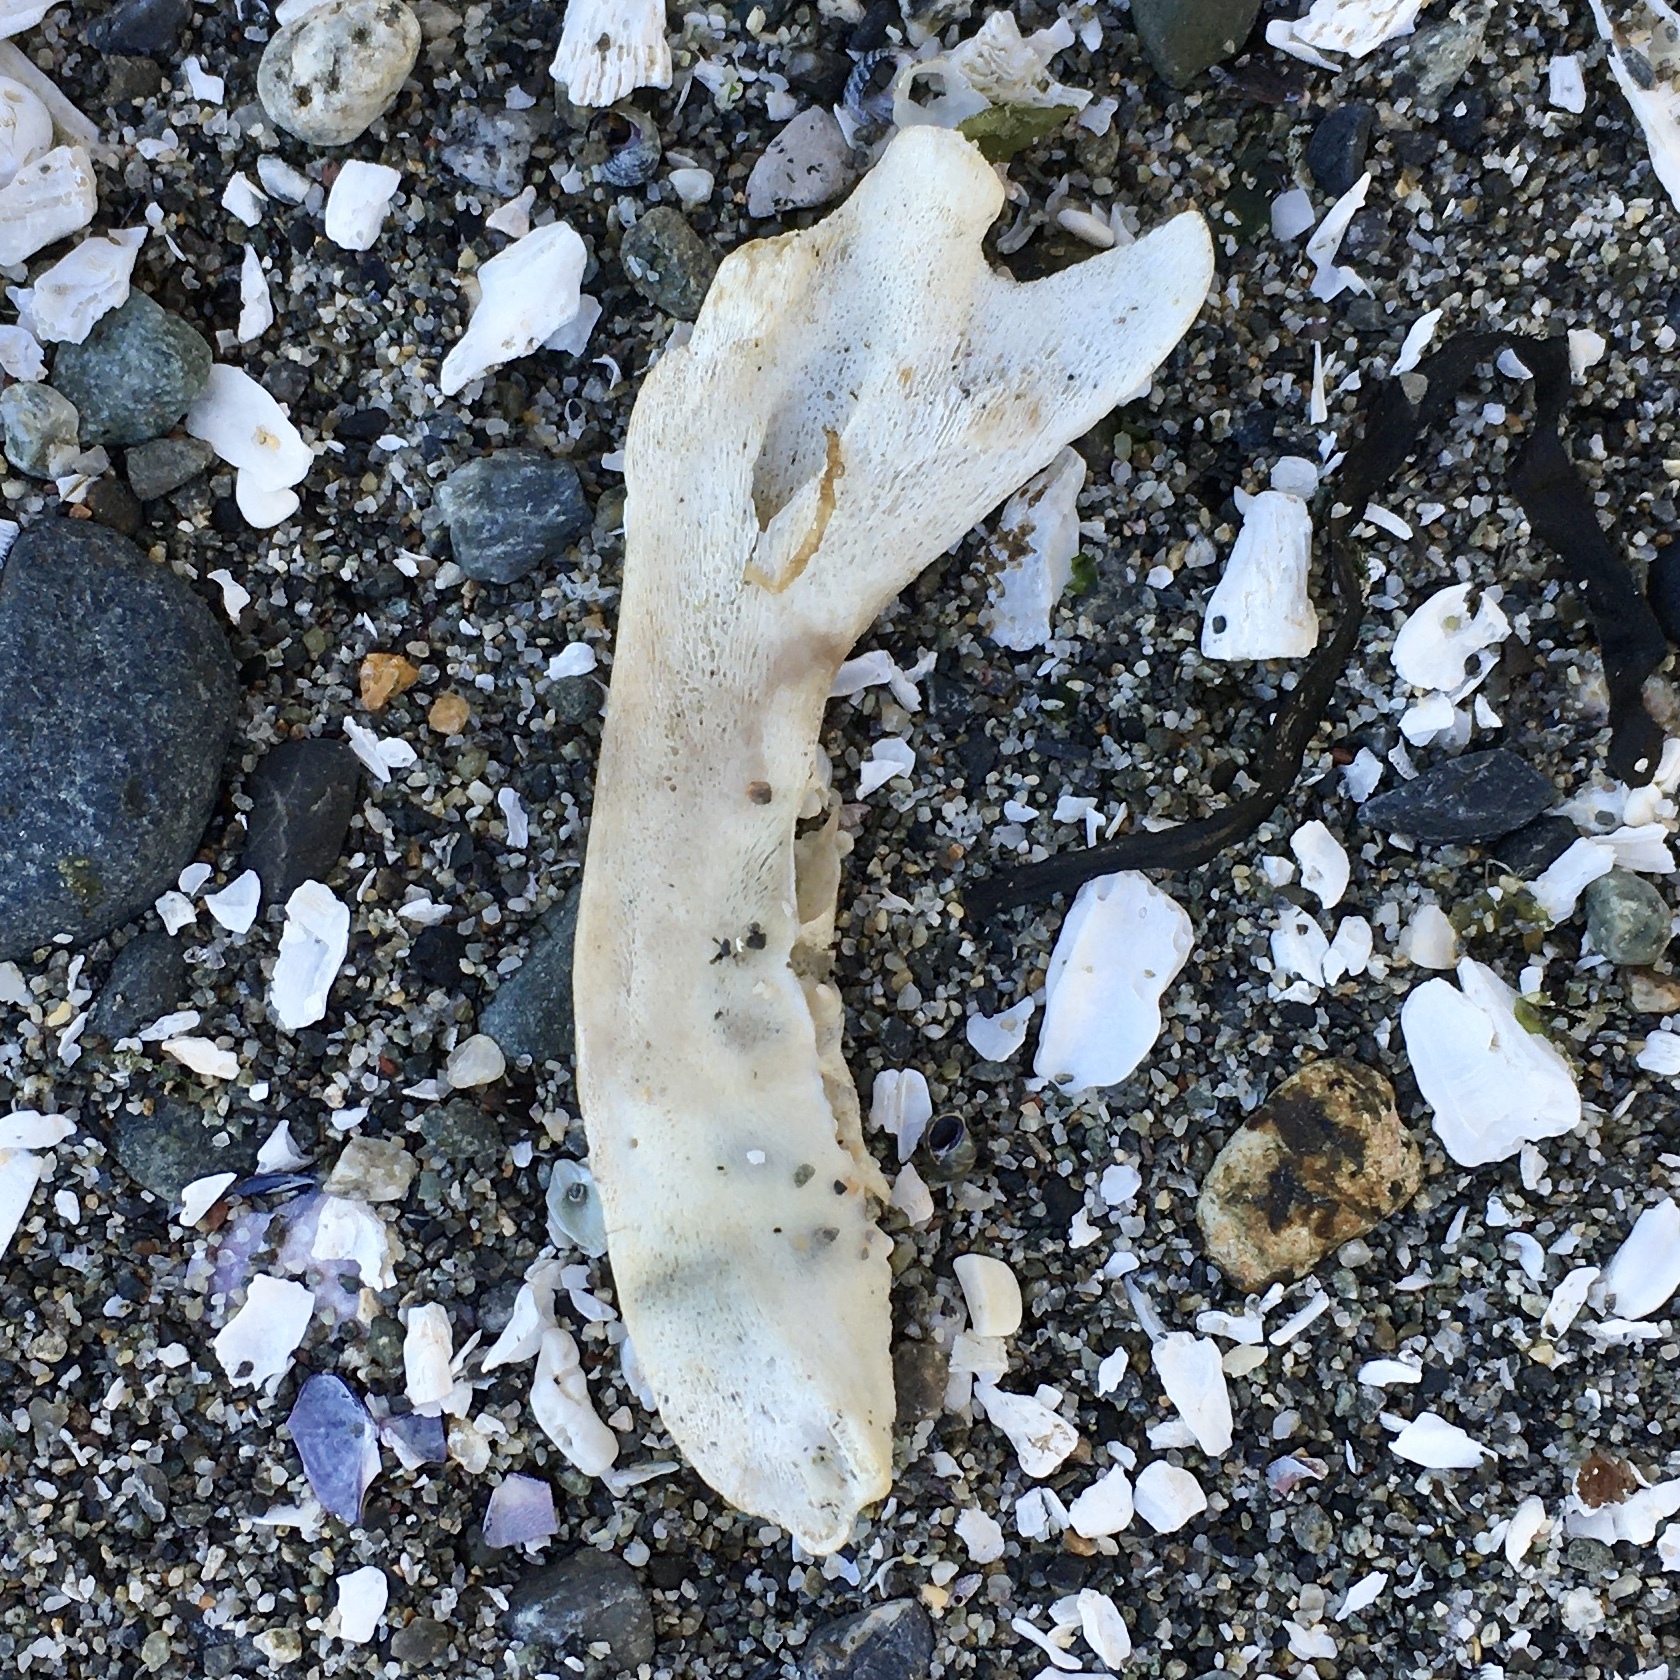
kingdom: Animalia
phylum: Chordata
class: Mammalia
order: Carnivora
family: Phocidae
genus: Phoca
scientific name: Phoca vitulina
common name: Harbor seal
